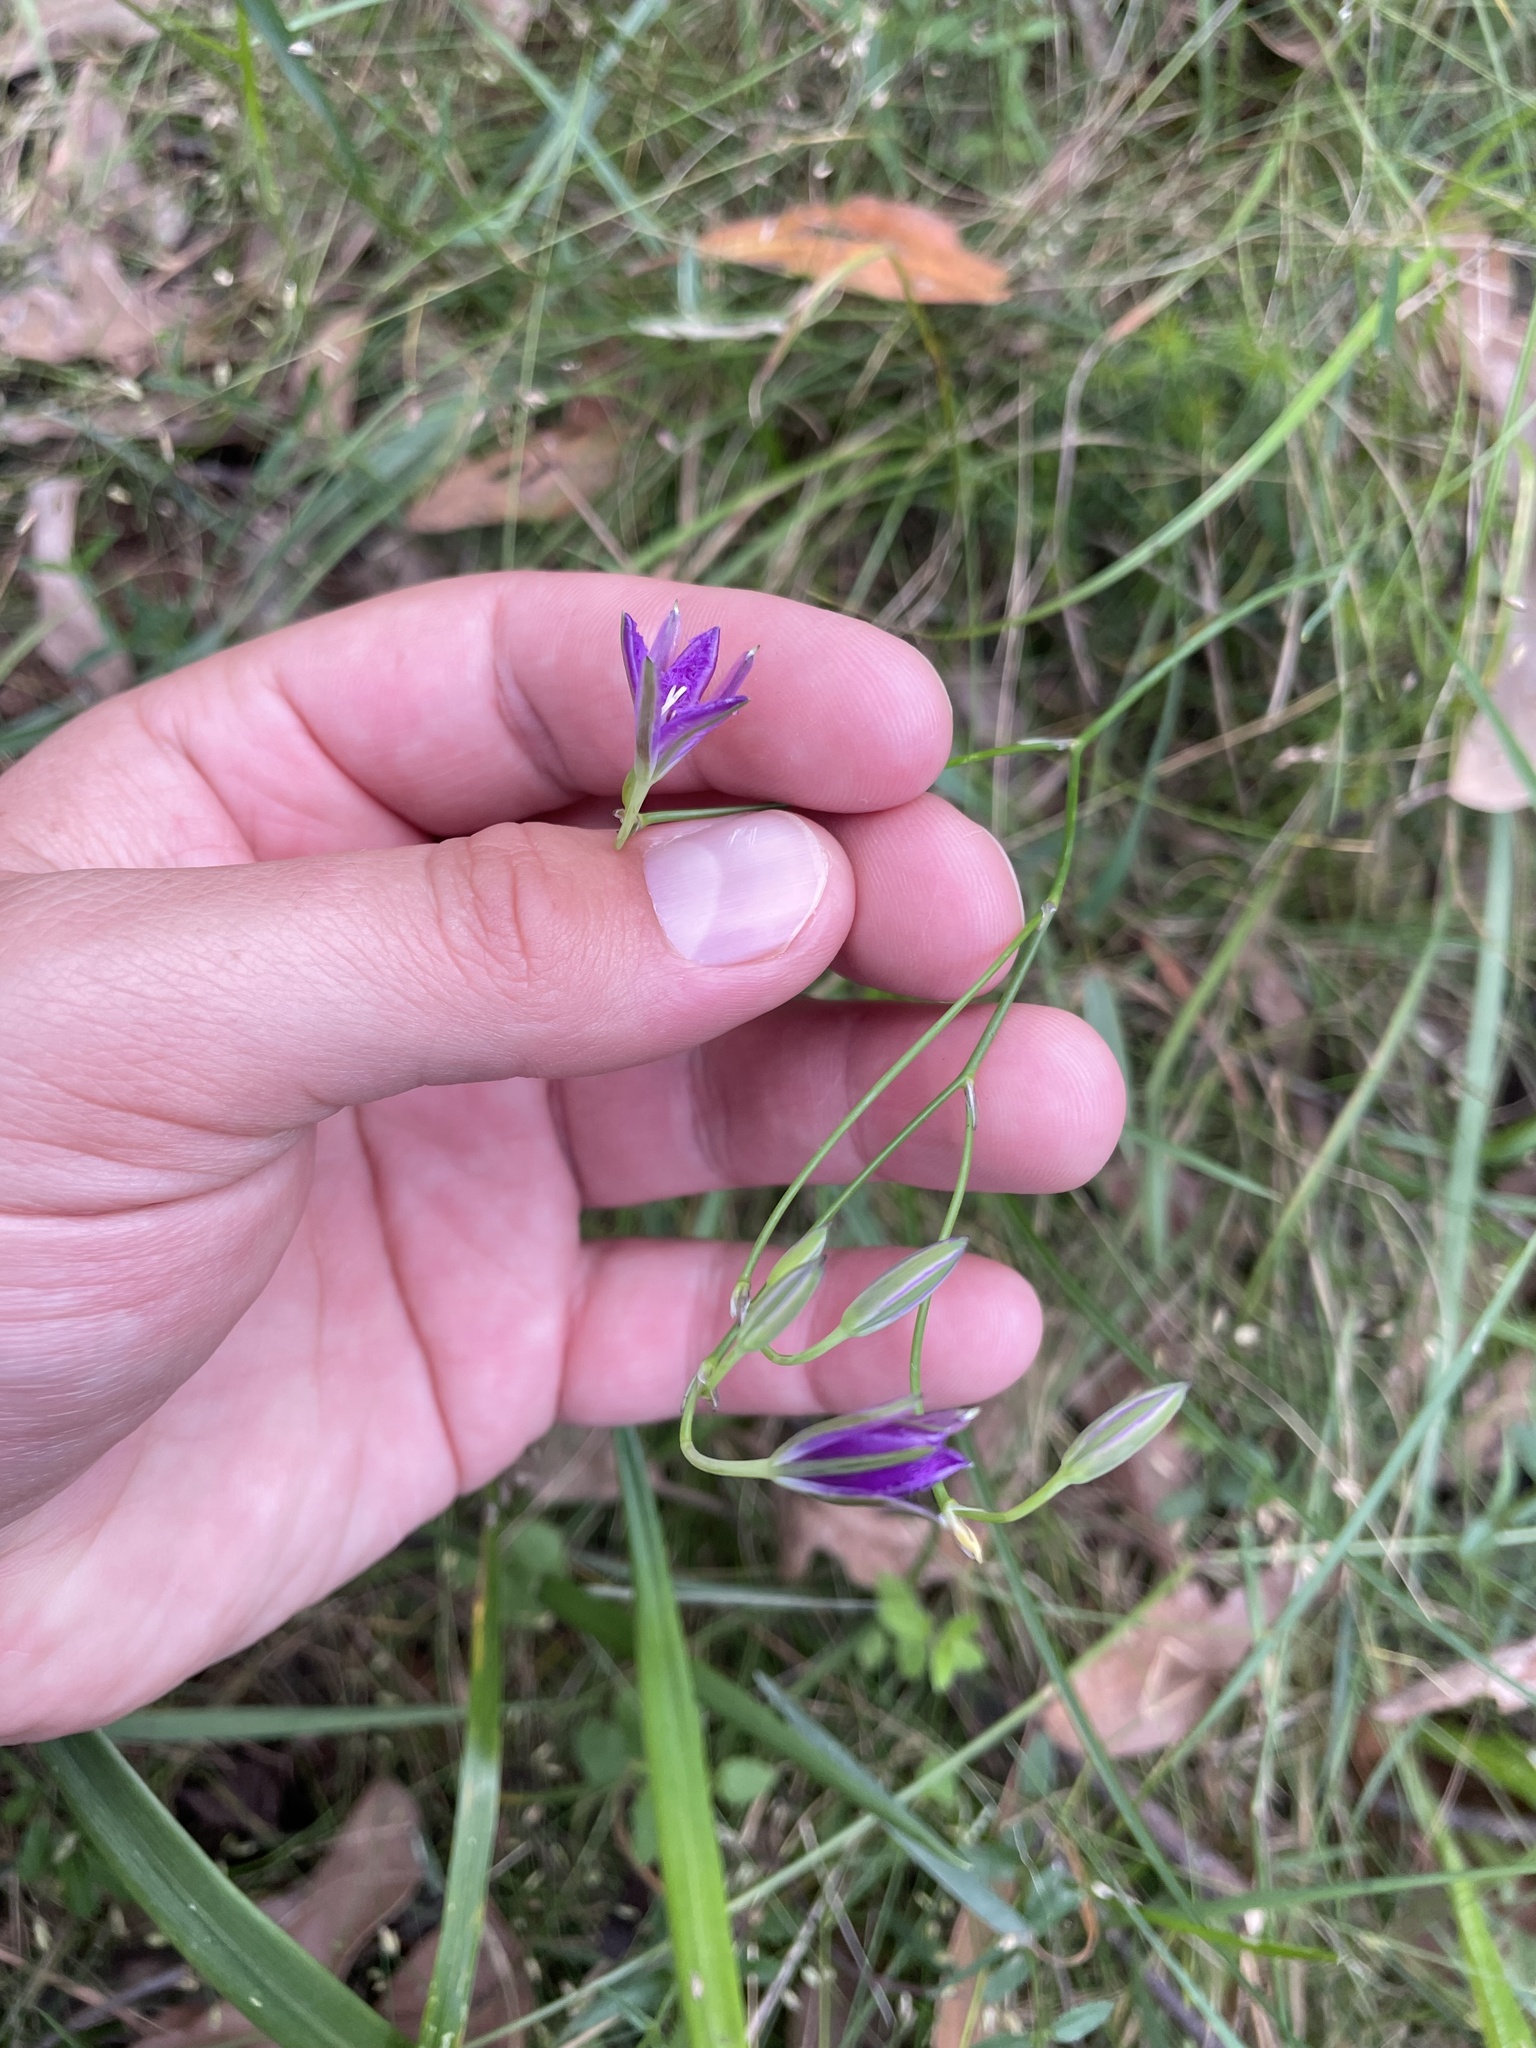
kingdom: Plantae
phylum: Tracheophyta
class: Liliopsida
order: Asparagales
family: Asparagaceae
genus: Thysanotus
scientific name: Thysanotus tuberosus
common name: Common fringed-lily
